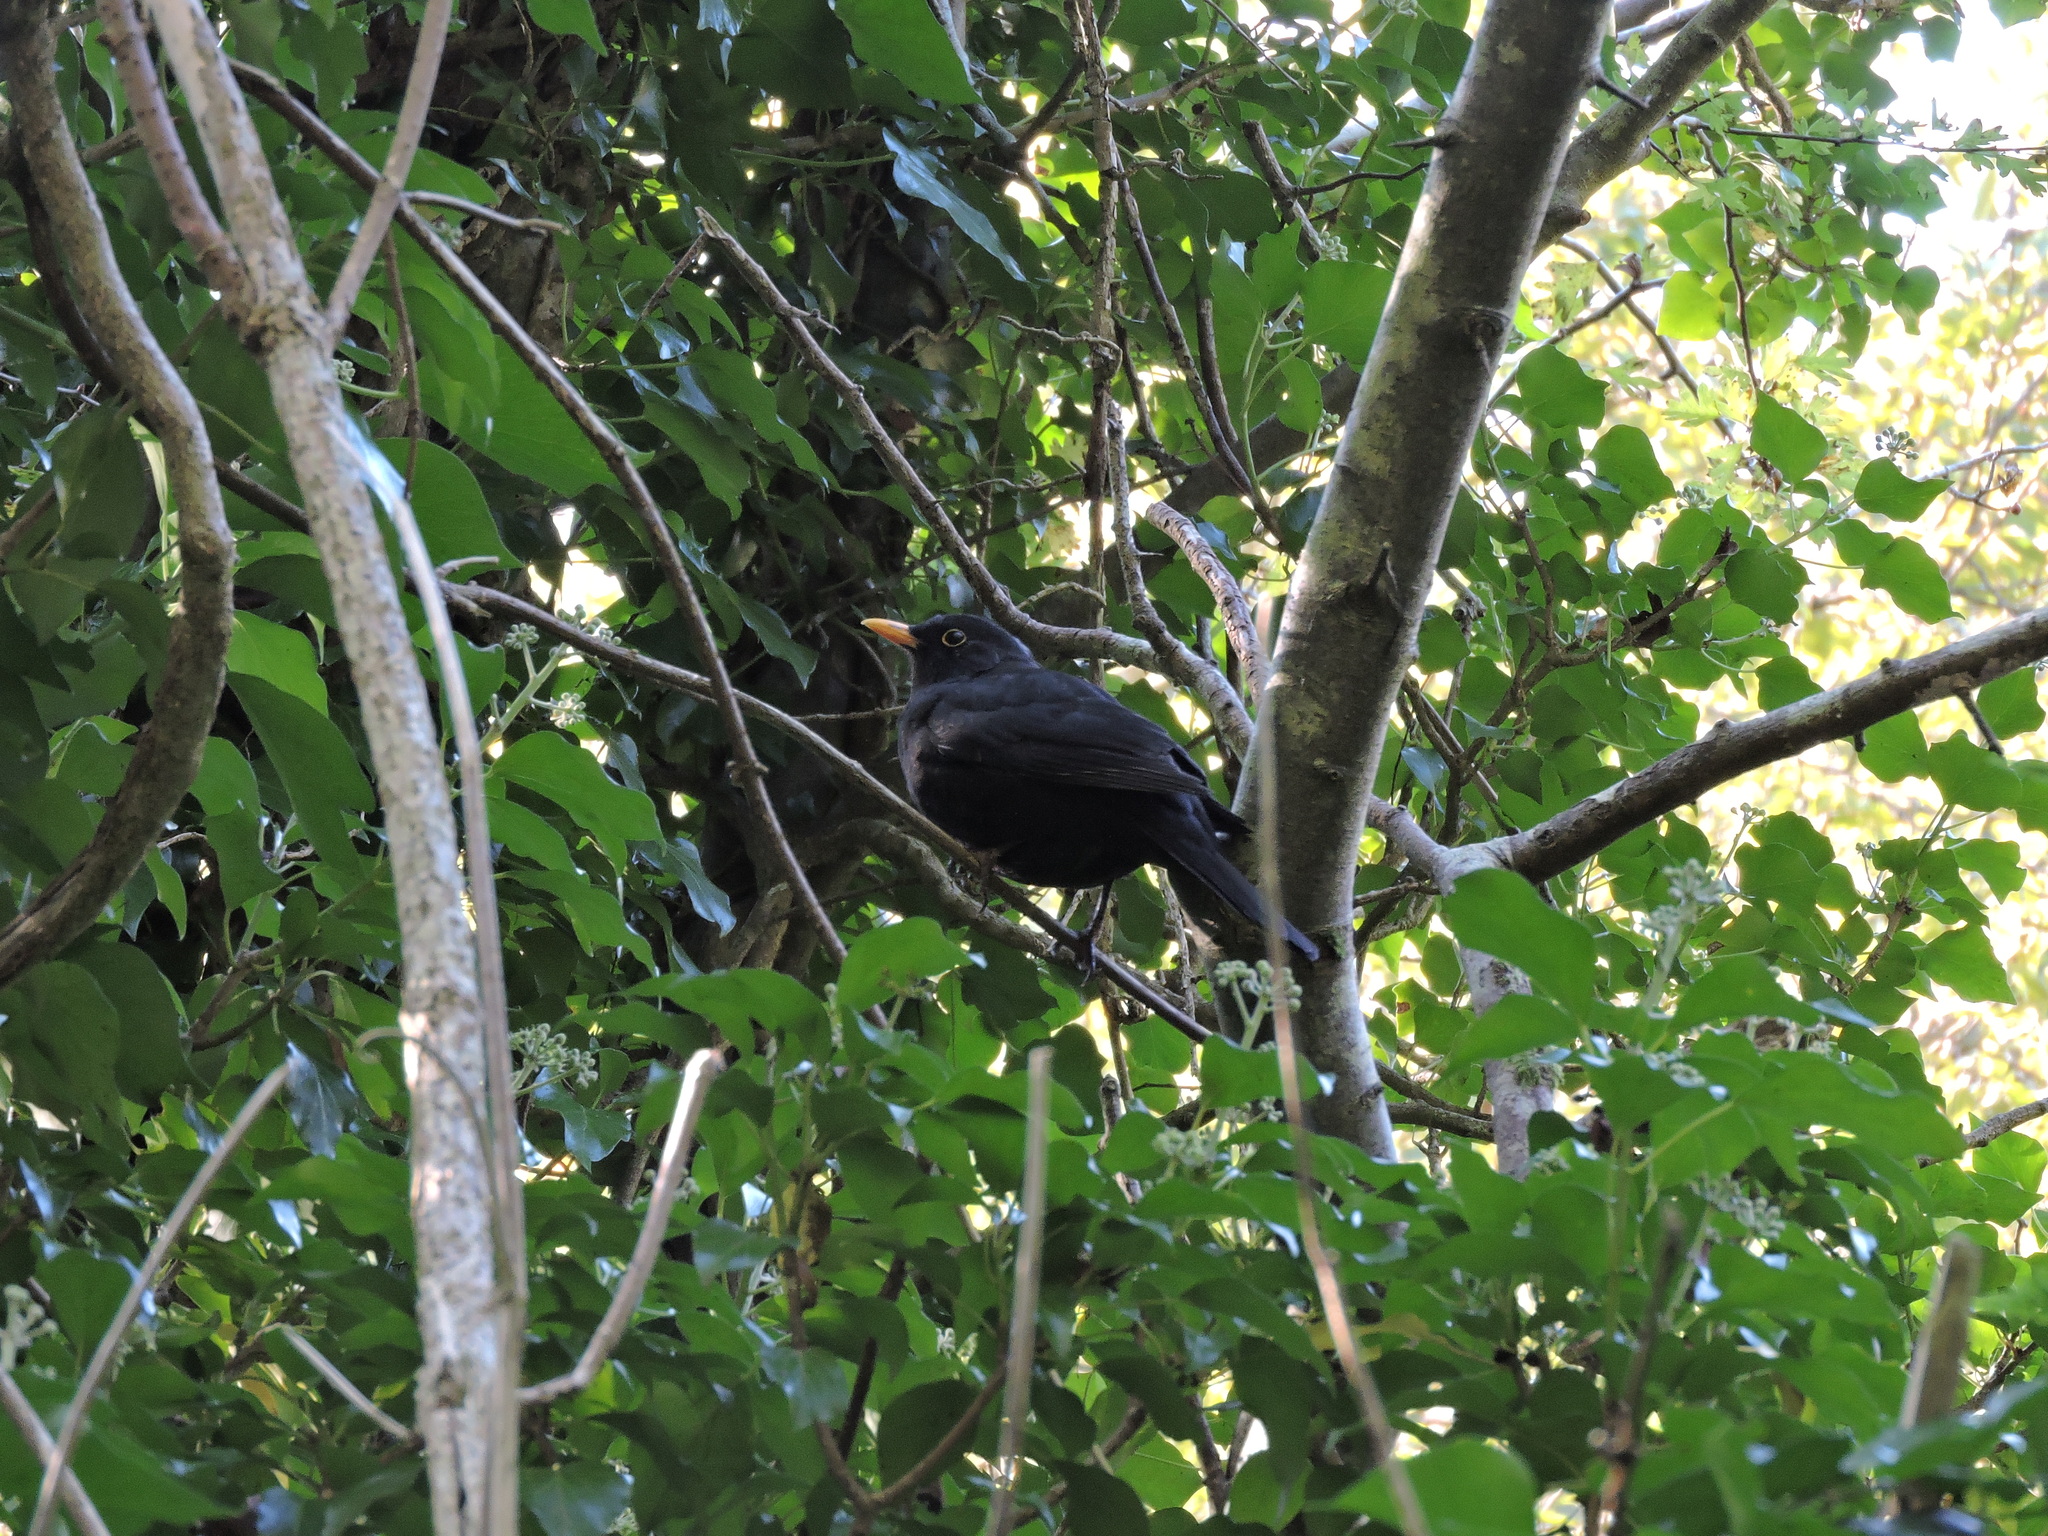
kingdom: Animalia
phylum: Chordata
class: Aves
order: Passeriformes
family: Turdidae
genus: Turdus
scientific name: Turdus merula
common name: Common blackbird
